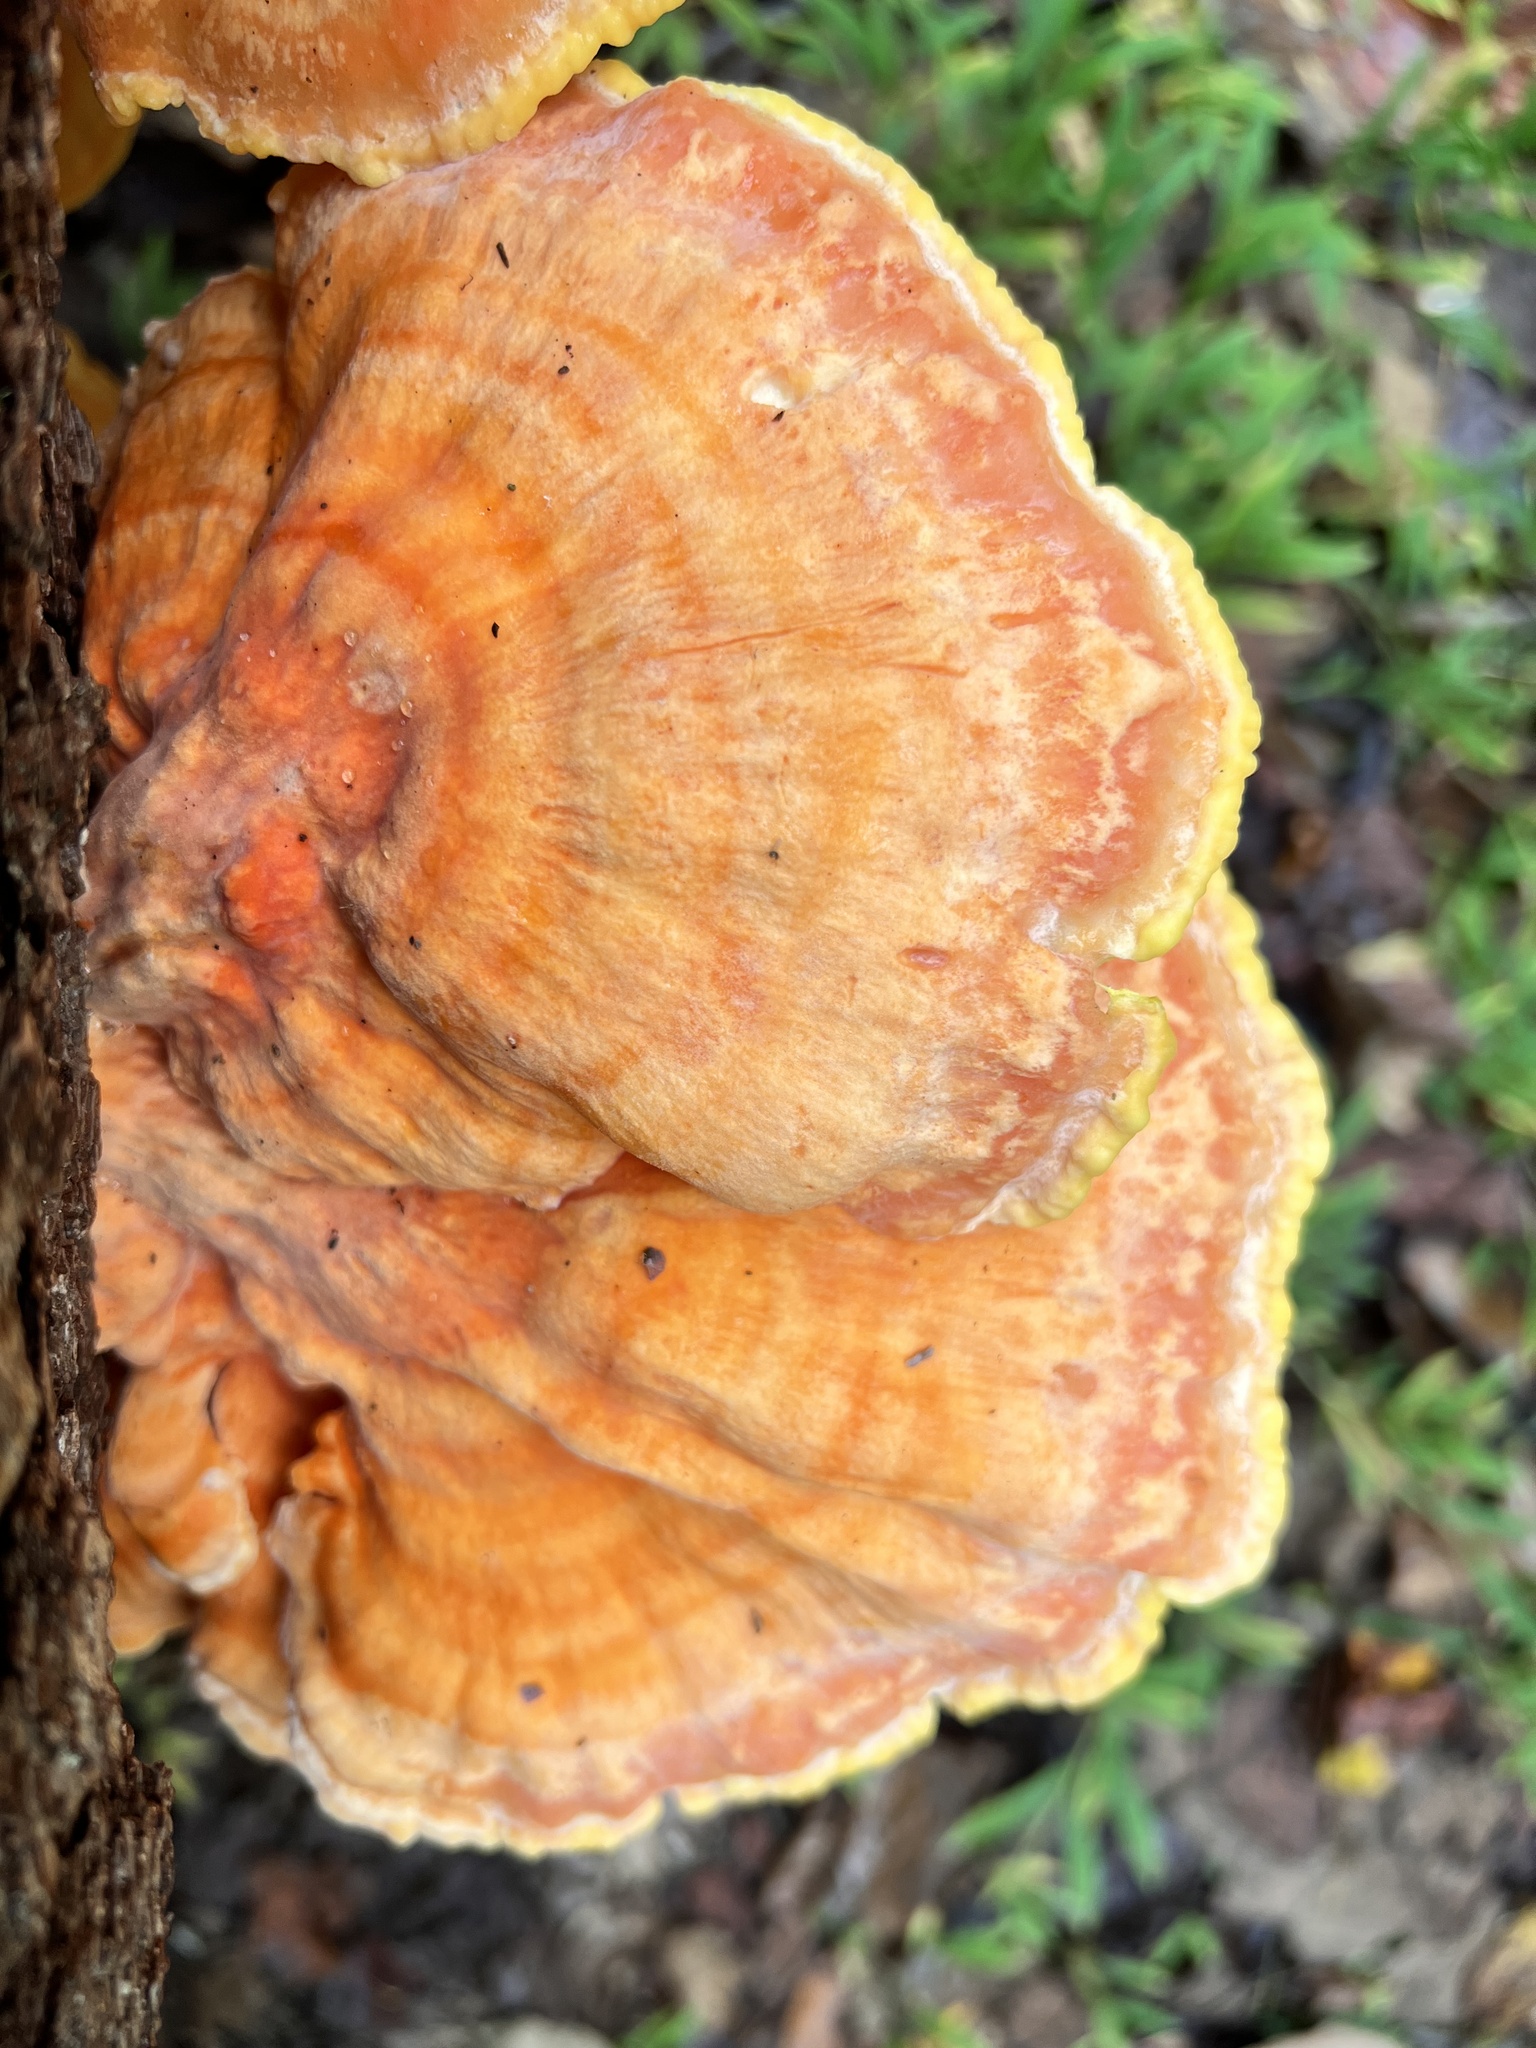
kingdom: Fungi
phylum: Basidiomycota
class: Agaricomycetes
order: Polyporales
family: Laetiporaceae
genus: Laetiporus
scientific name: Laetiporus sulphureus
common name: Chicken of the woods
